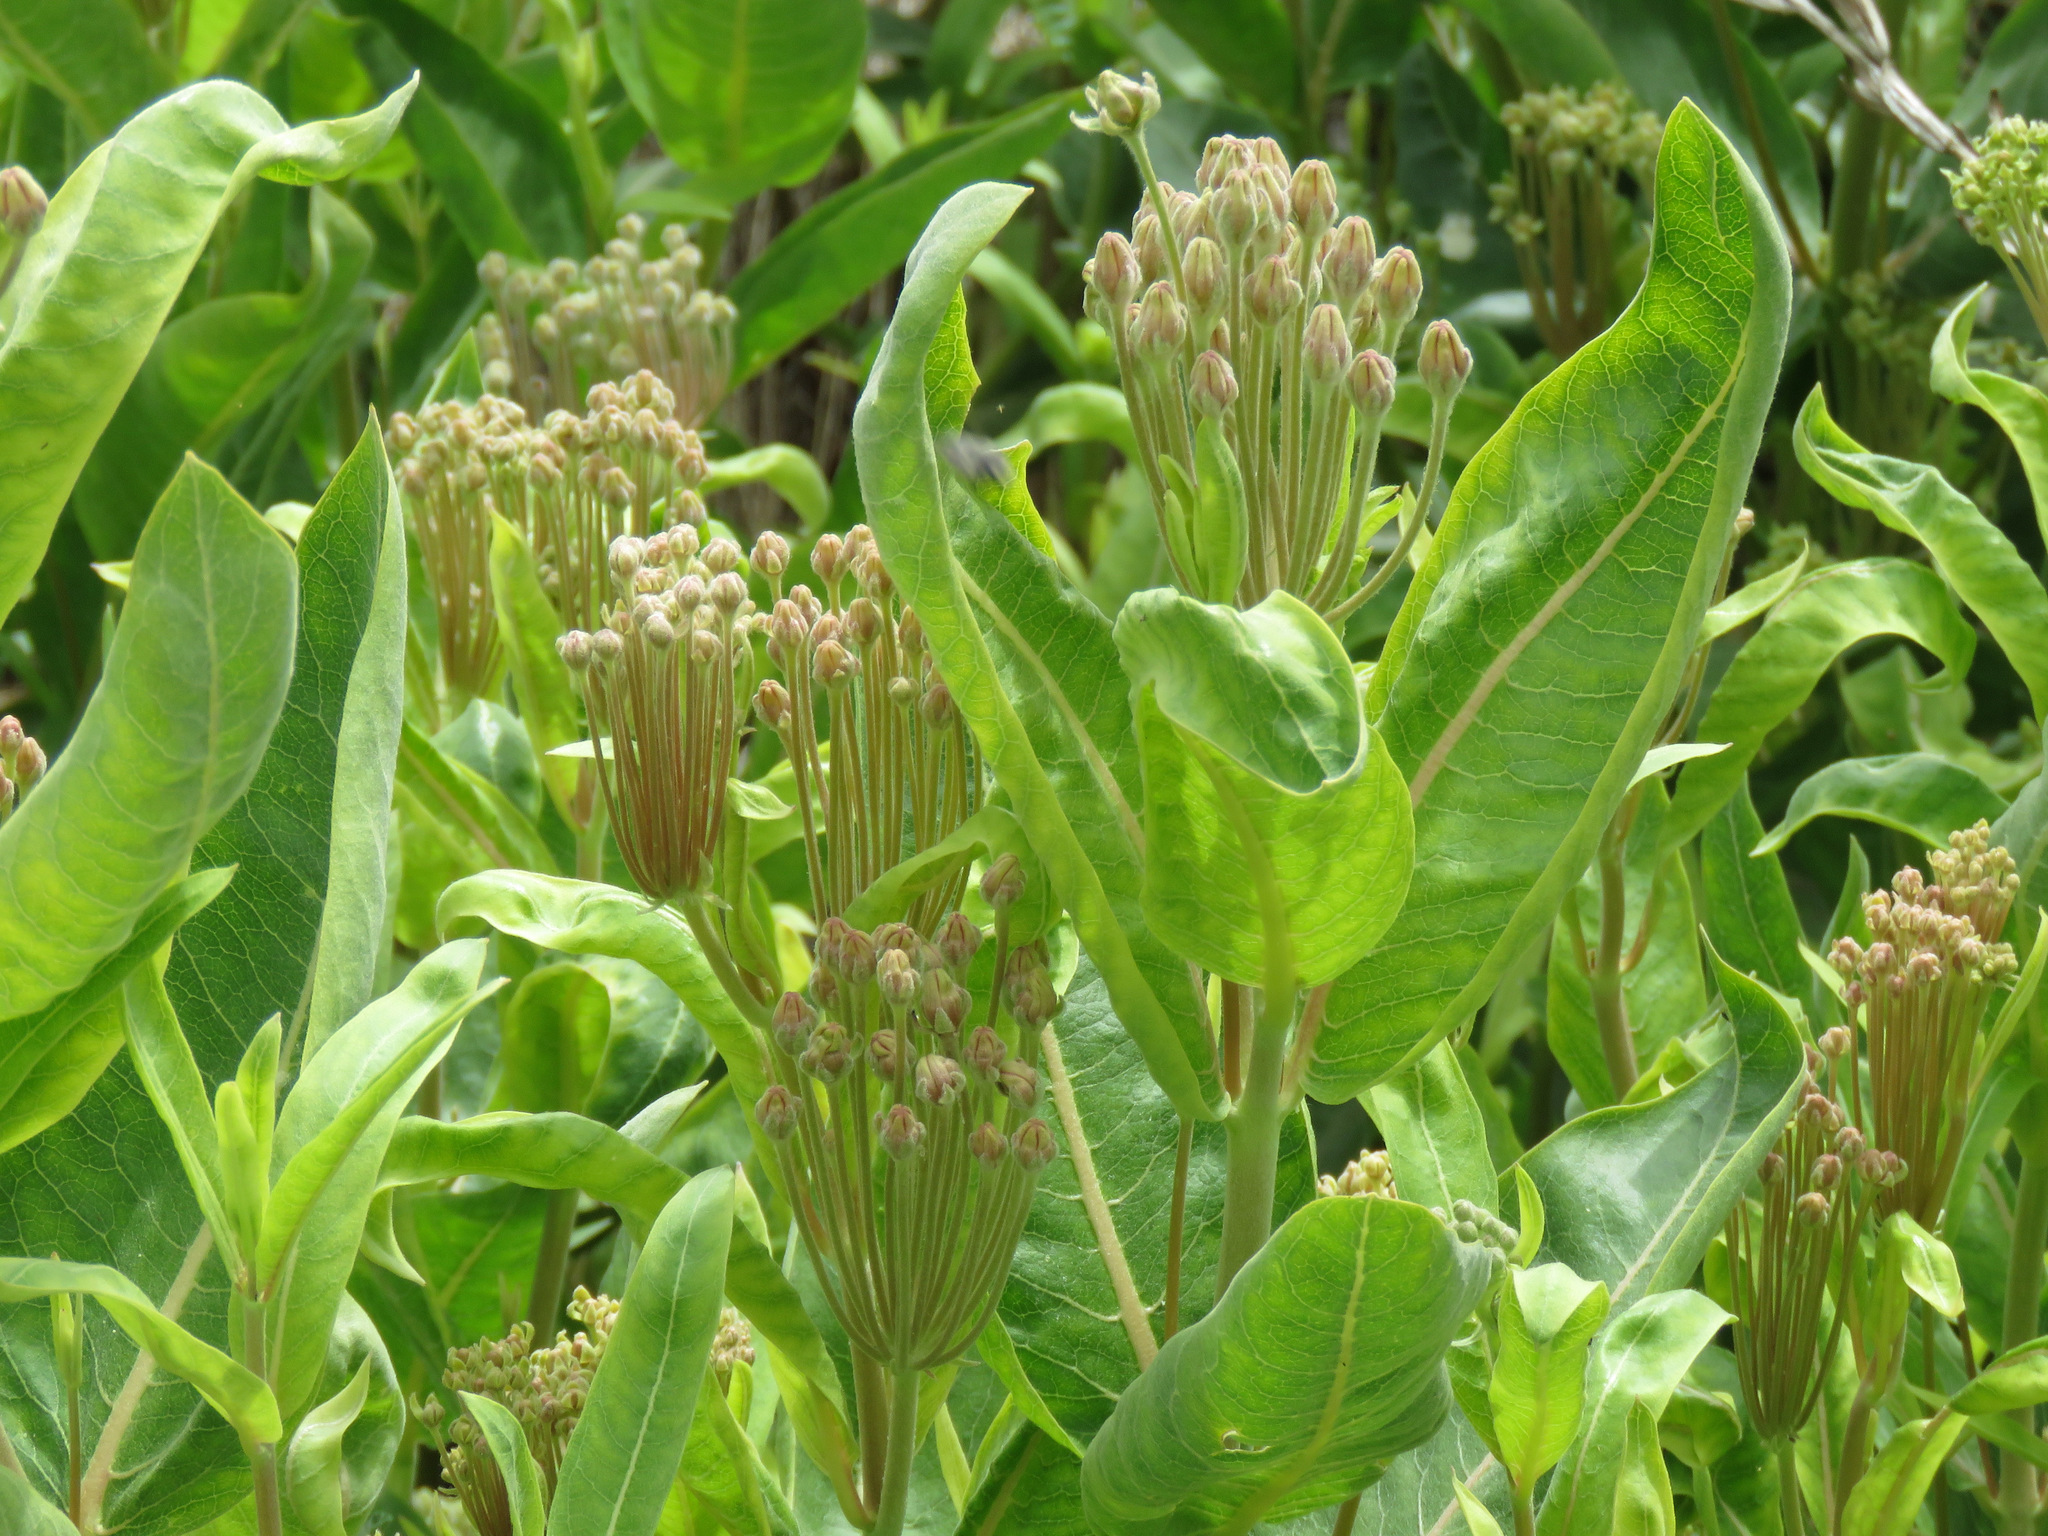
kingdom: Plantae
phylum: Tracheophyta
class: Magnoliopsida
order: Gentianales
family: Apocynaceae
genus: Asclepias
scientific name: Asclepias speciosa
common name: Showy milkweed
